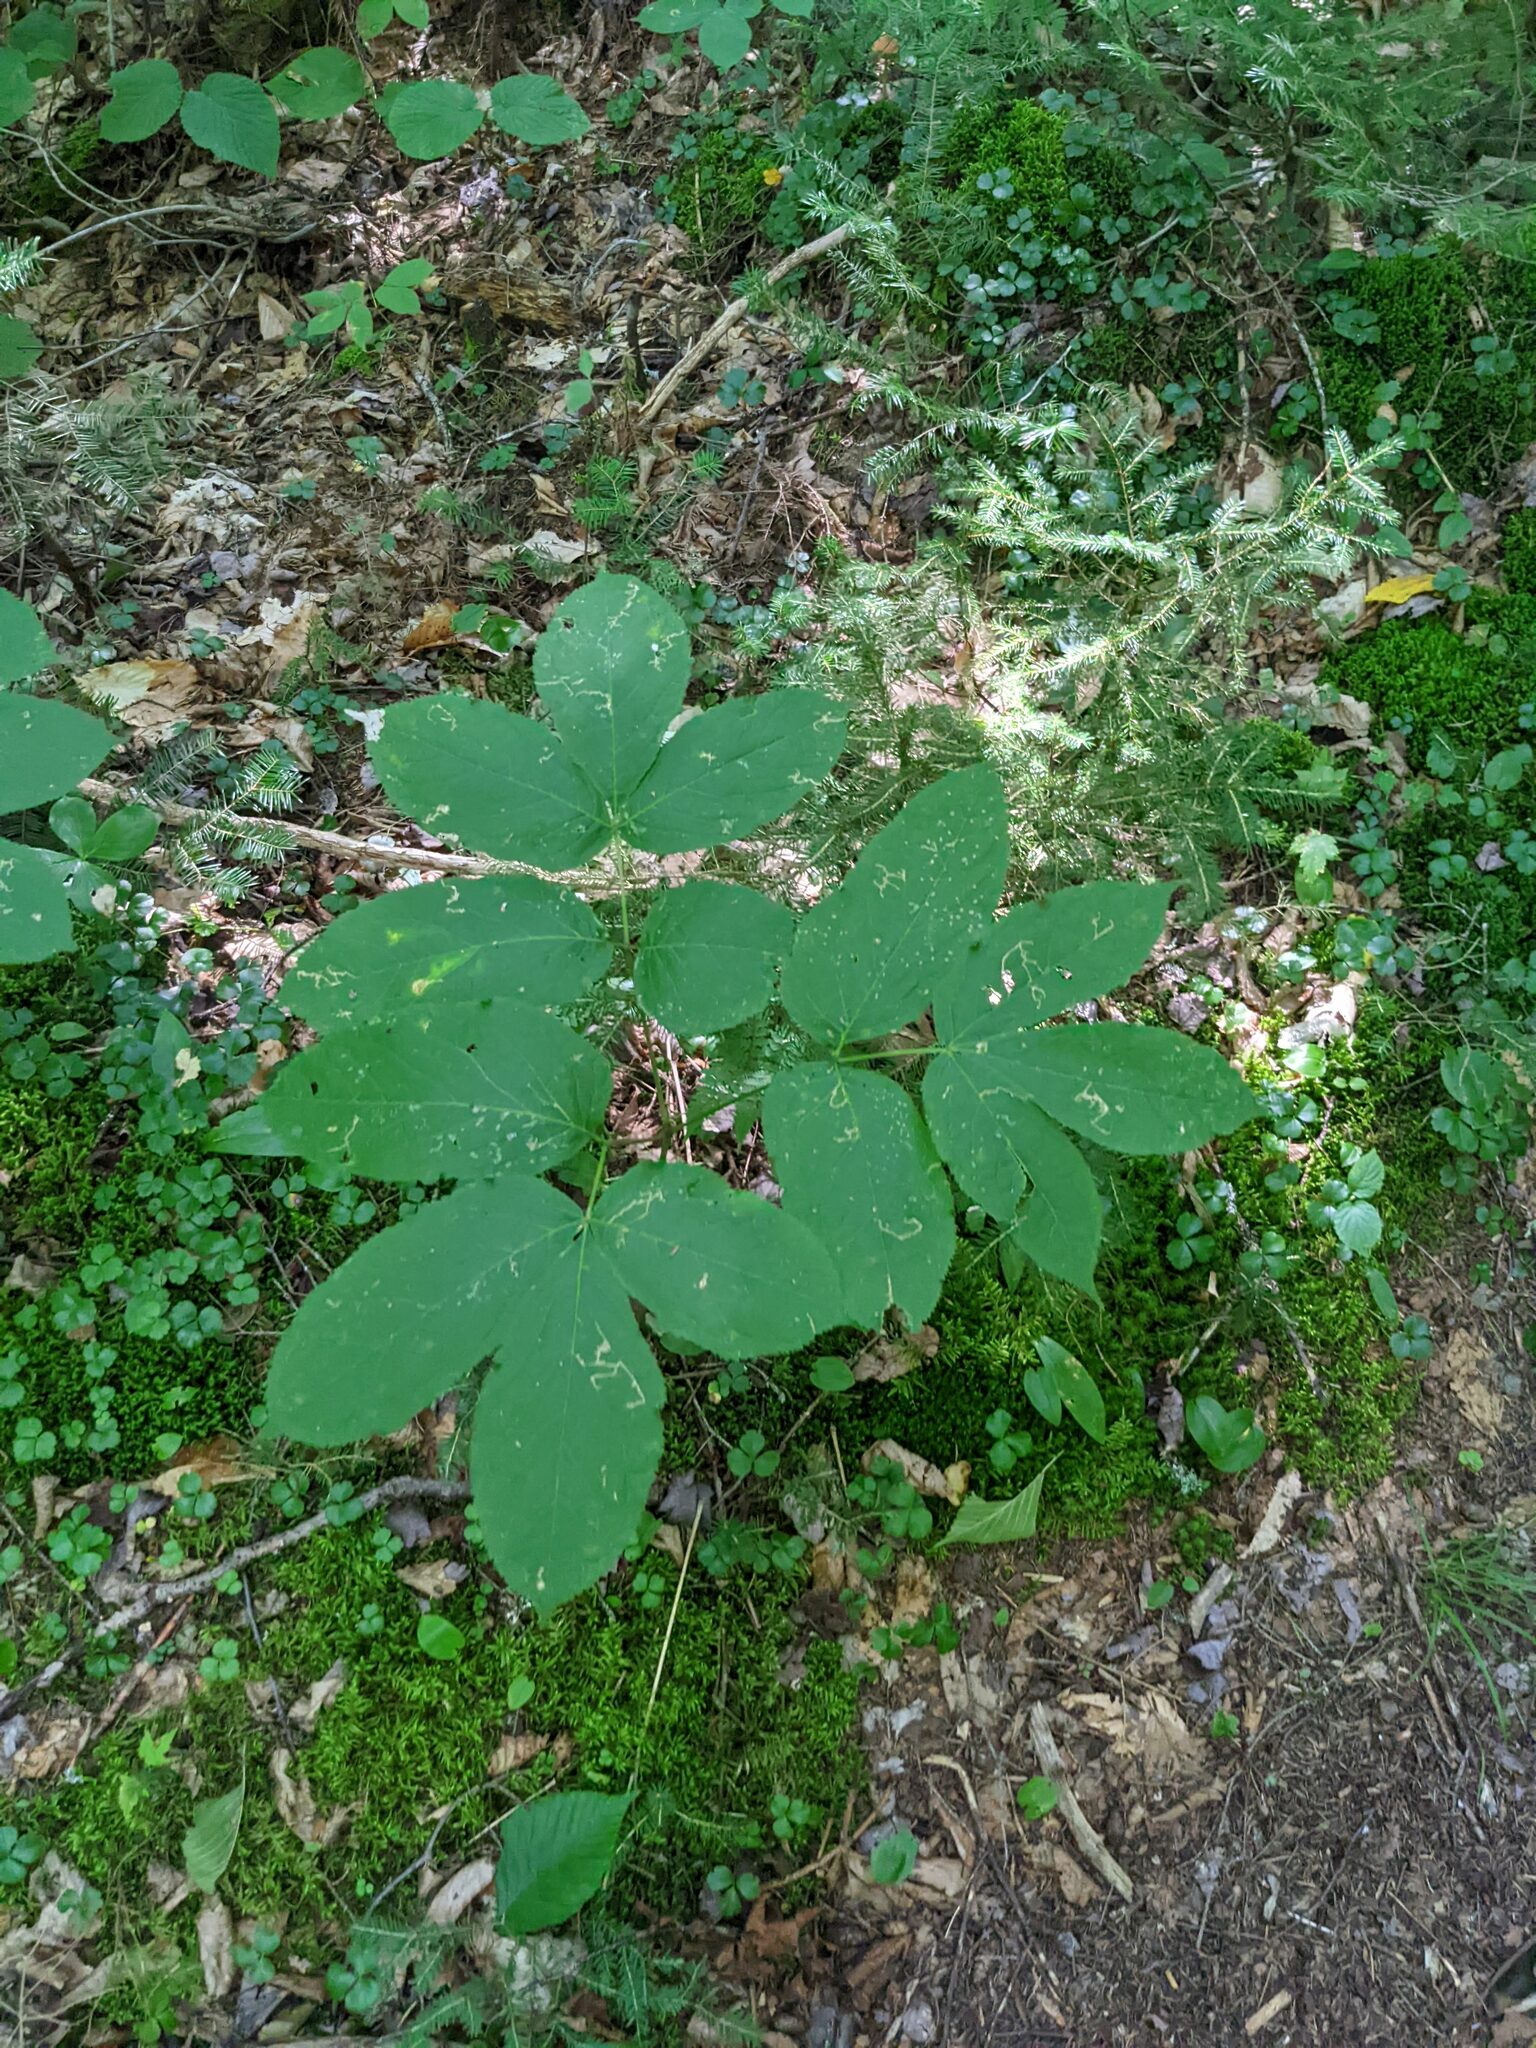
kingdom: Plantae
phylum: Tracheophyta
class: Magnoliopsida
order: Apiales
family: Araliaceae
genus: Aralia
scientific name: Aralia nudicaulis
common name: Wild sarsaparilla
